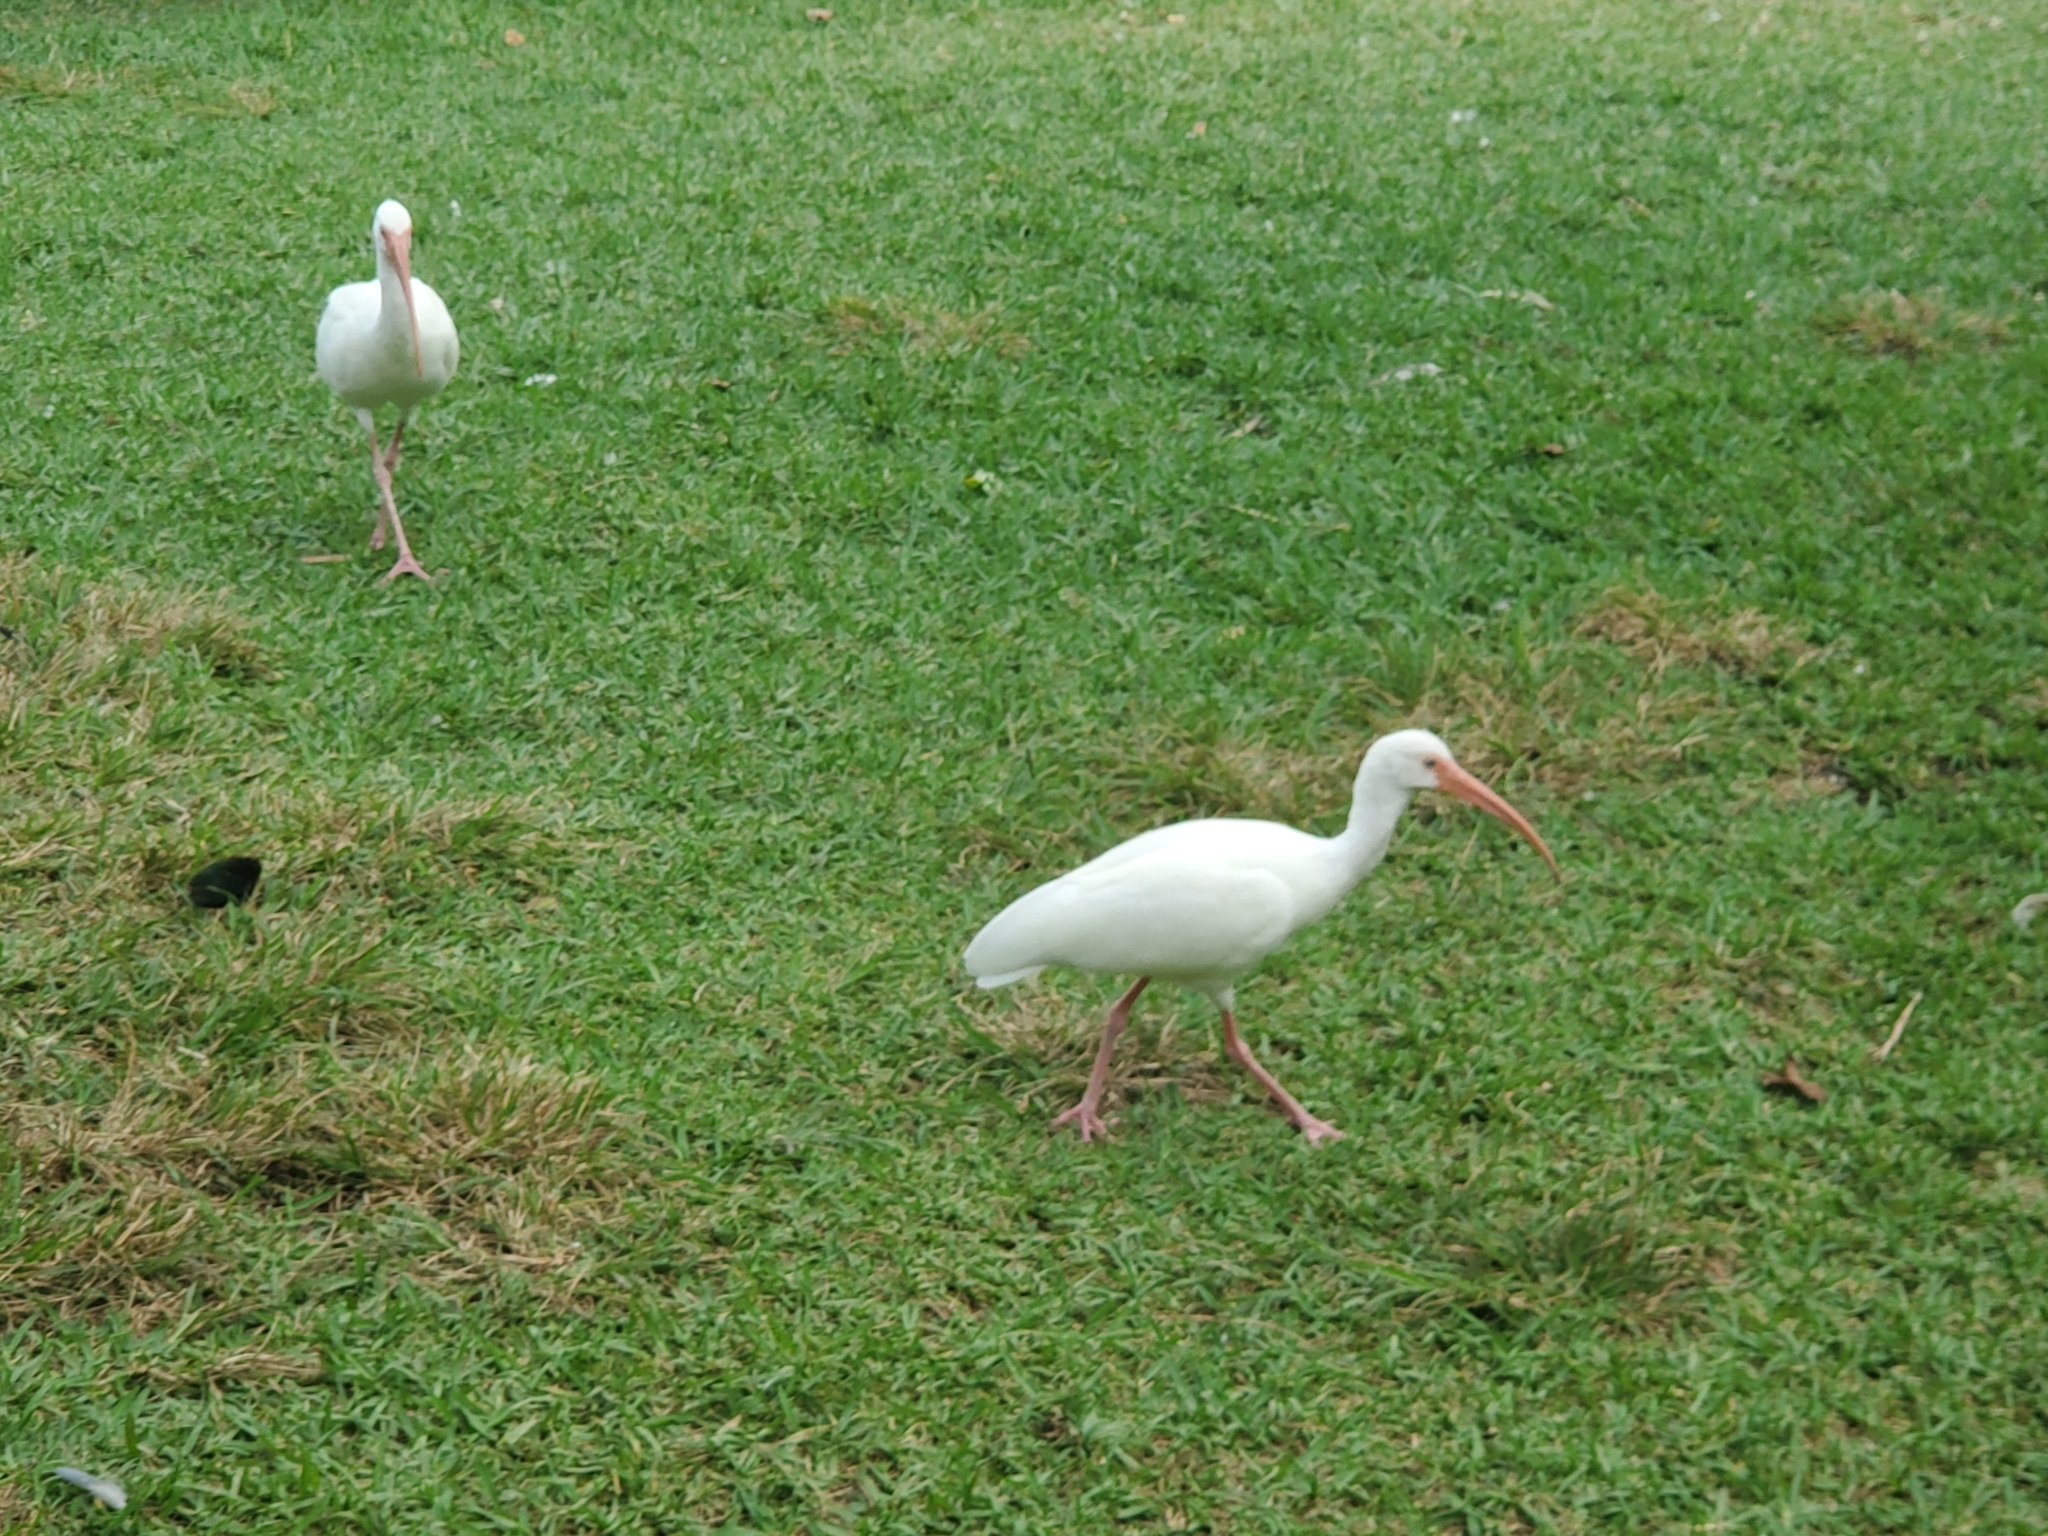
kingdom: Animalia
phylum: Chordata
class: Aves
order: Pelecaniformes
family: Threskiornithidae
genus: Eudocimus
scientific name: Eudocimus albus
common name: White ibis
